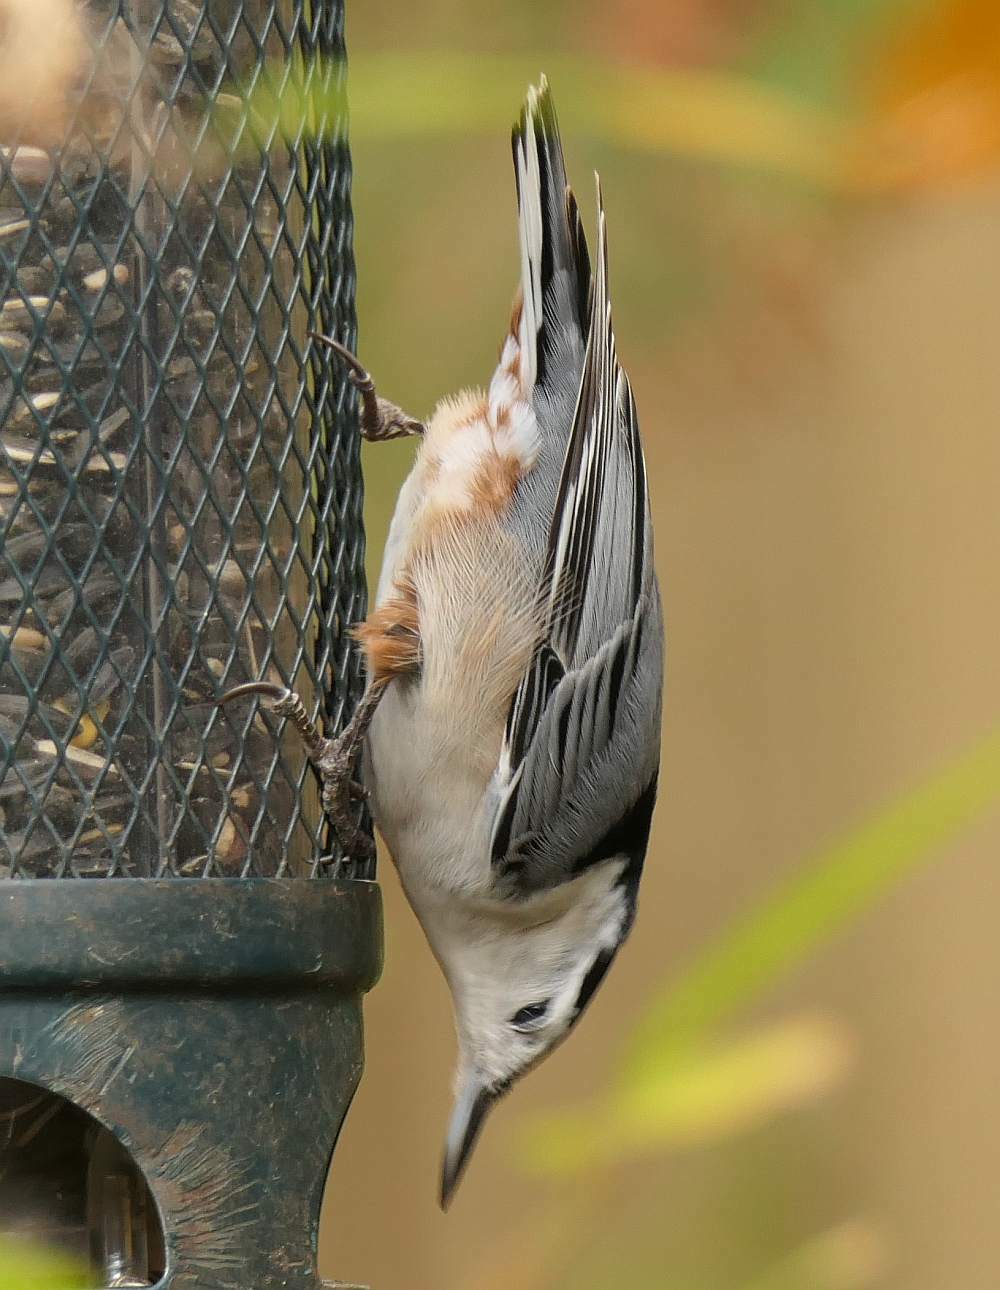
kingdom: Animalia
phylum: Chordata
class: Aves
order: Passeriformes
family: Sittidae
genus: Sitta
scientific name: Sitta carolinensis
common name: White-breasted nuthatch
